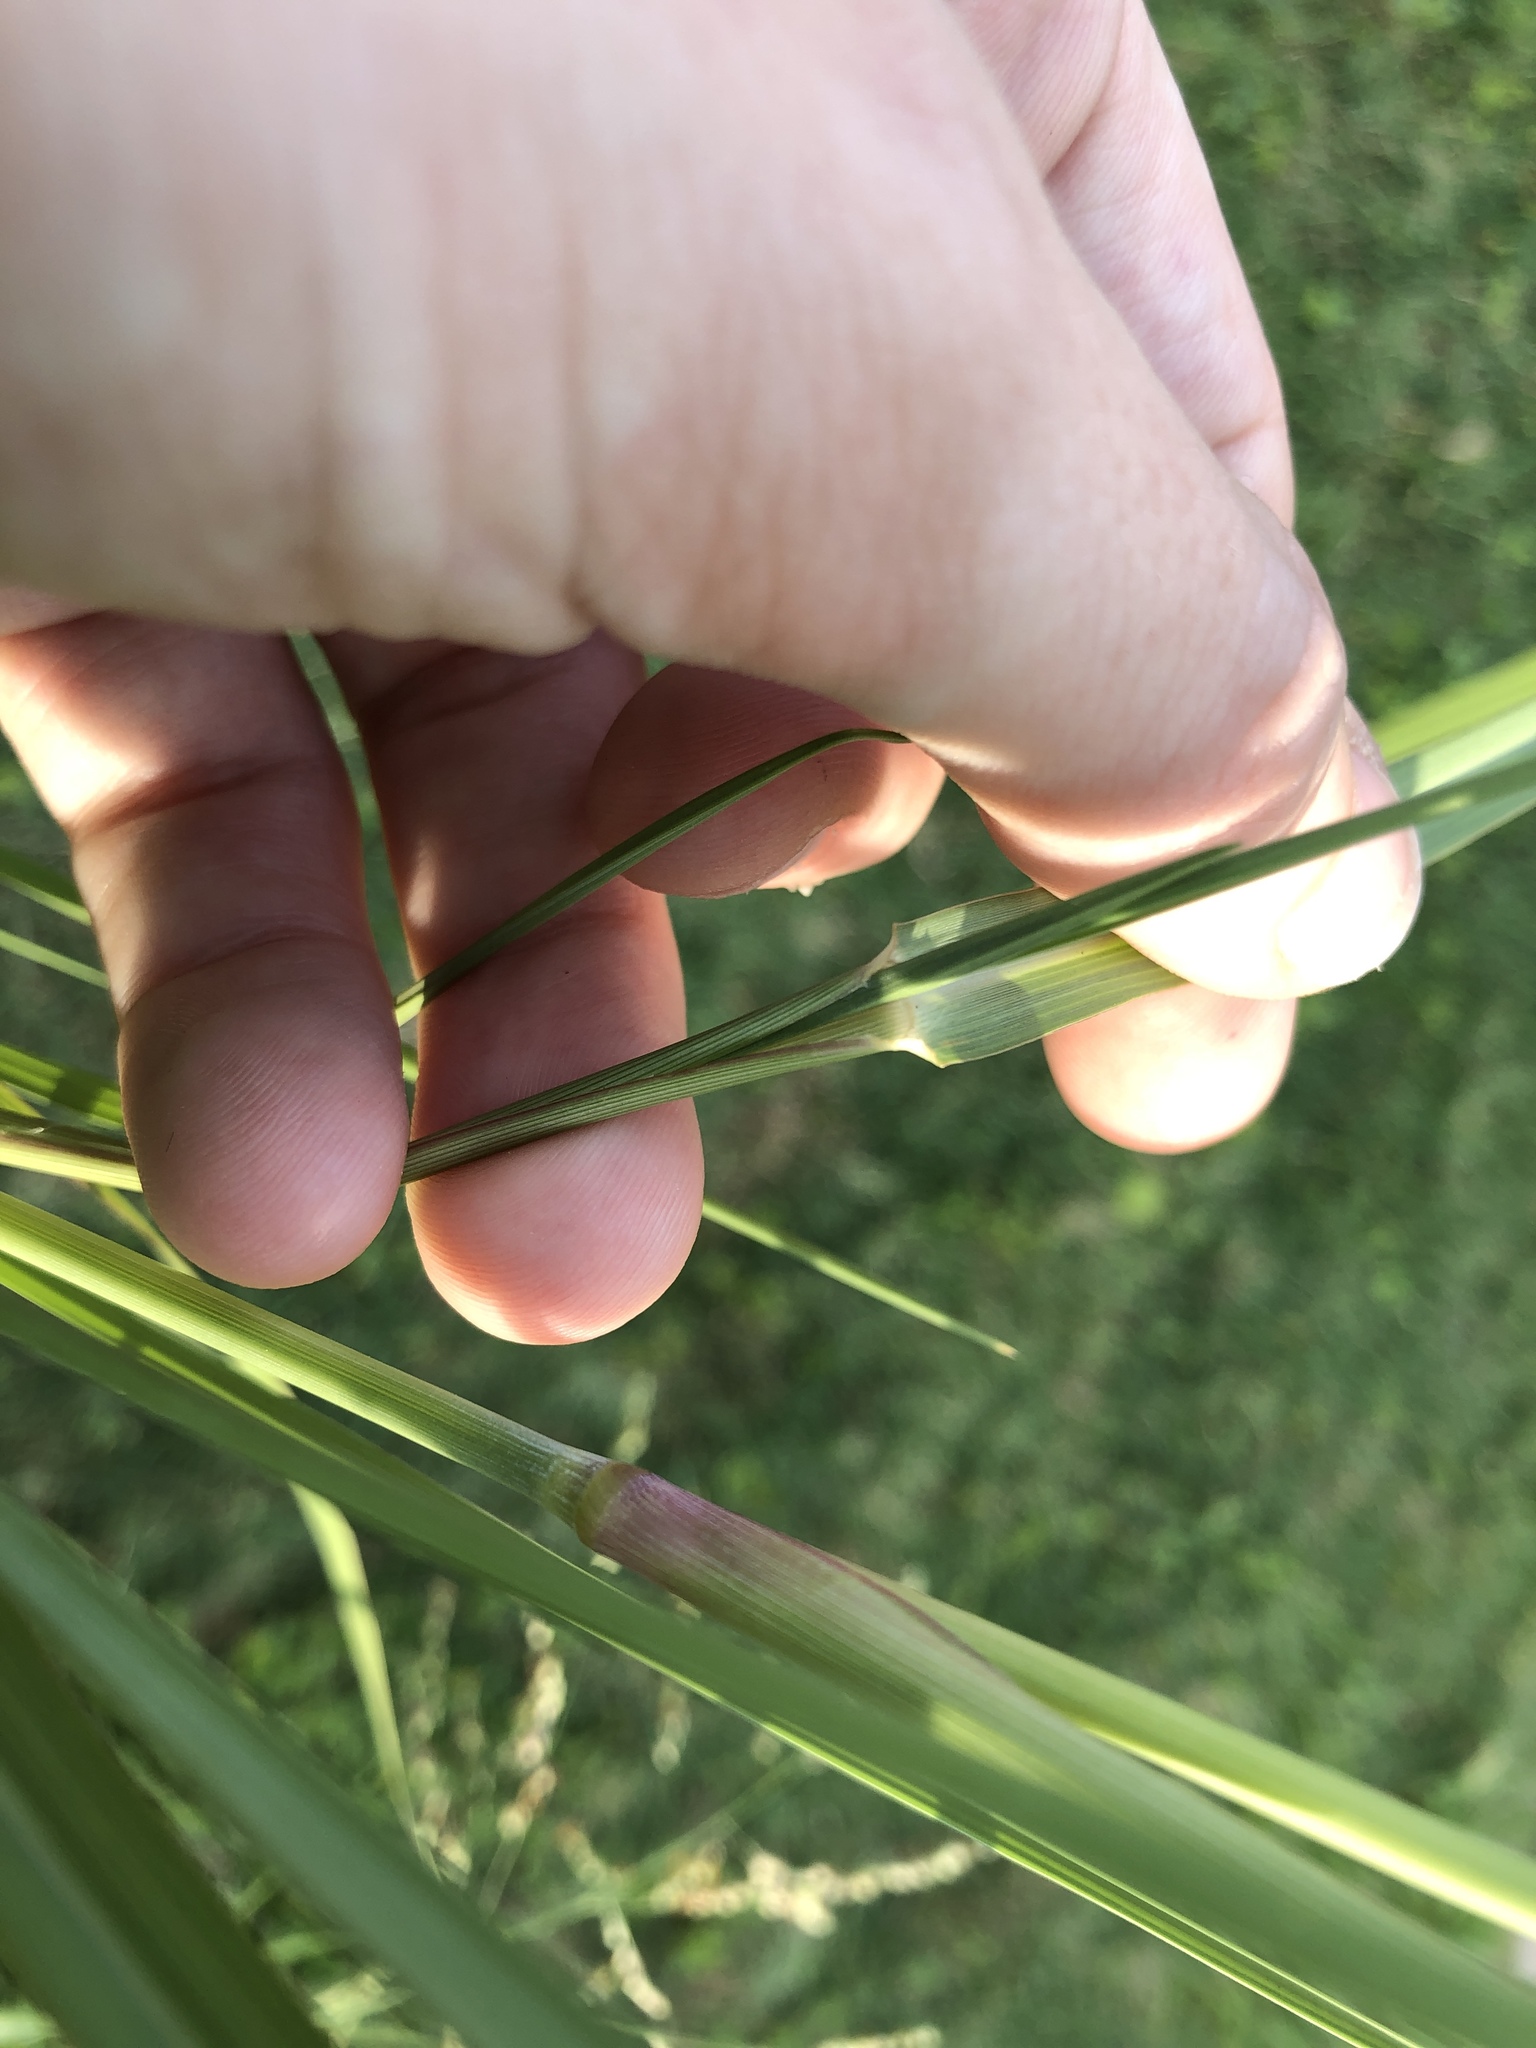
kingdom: Plantae
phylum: Tracheophyta
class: Liliopsida
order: Poales
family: Poaceae
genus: Panicum
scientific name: Panicum dichotomiflorum
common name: Autumn millet
